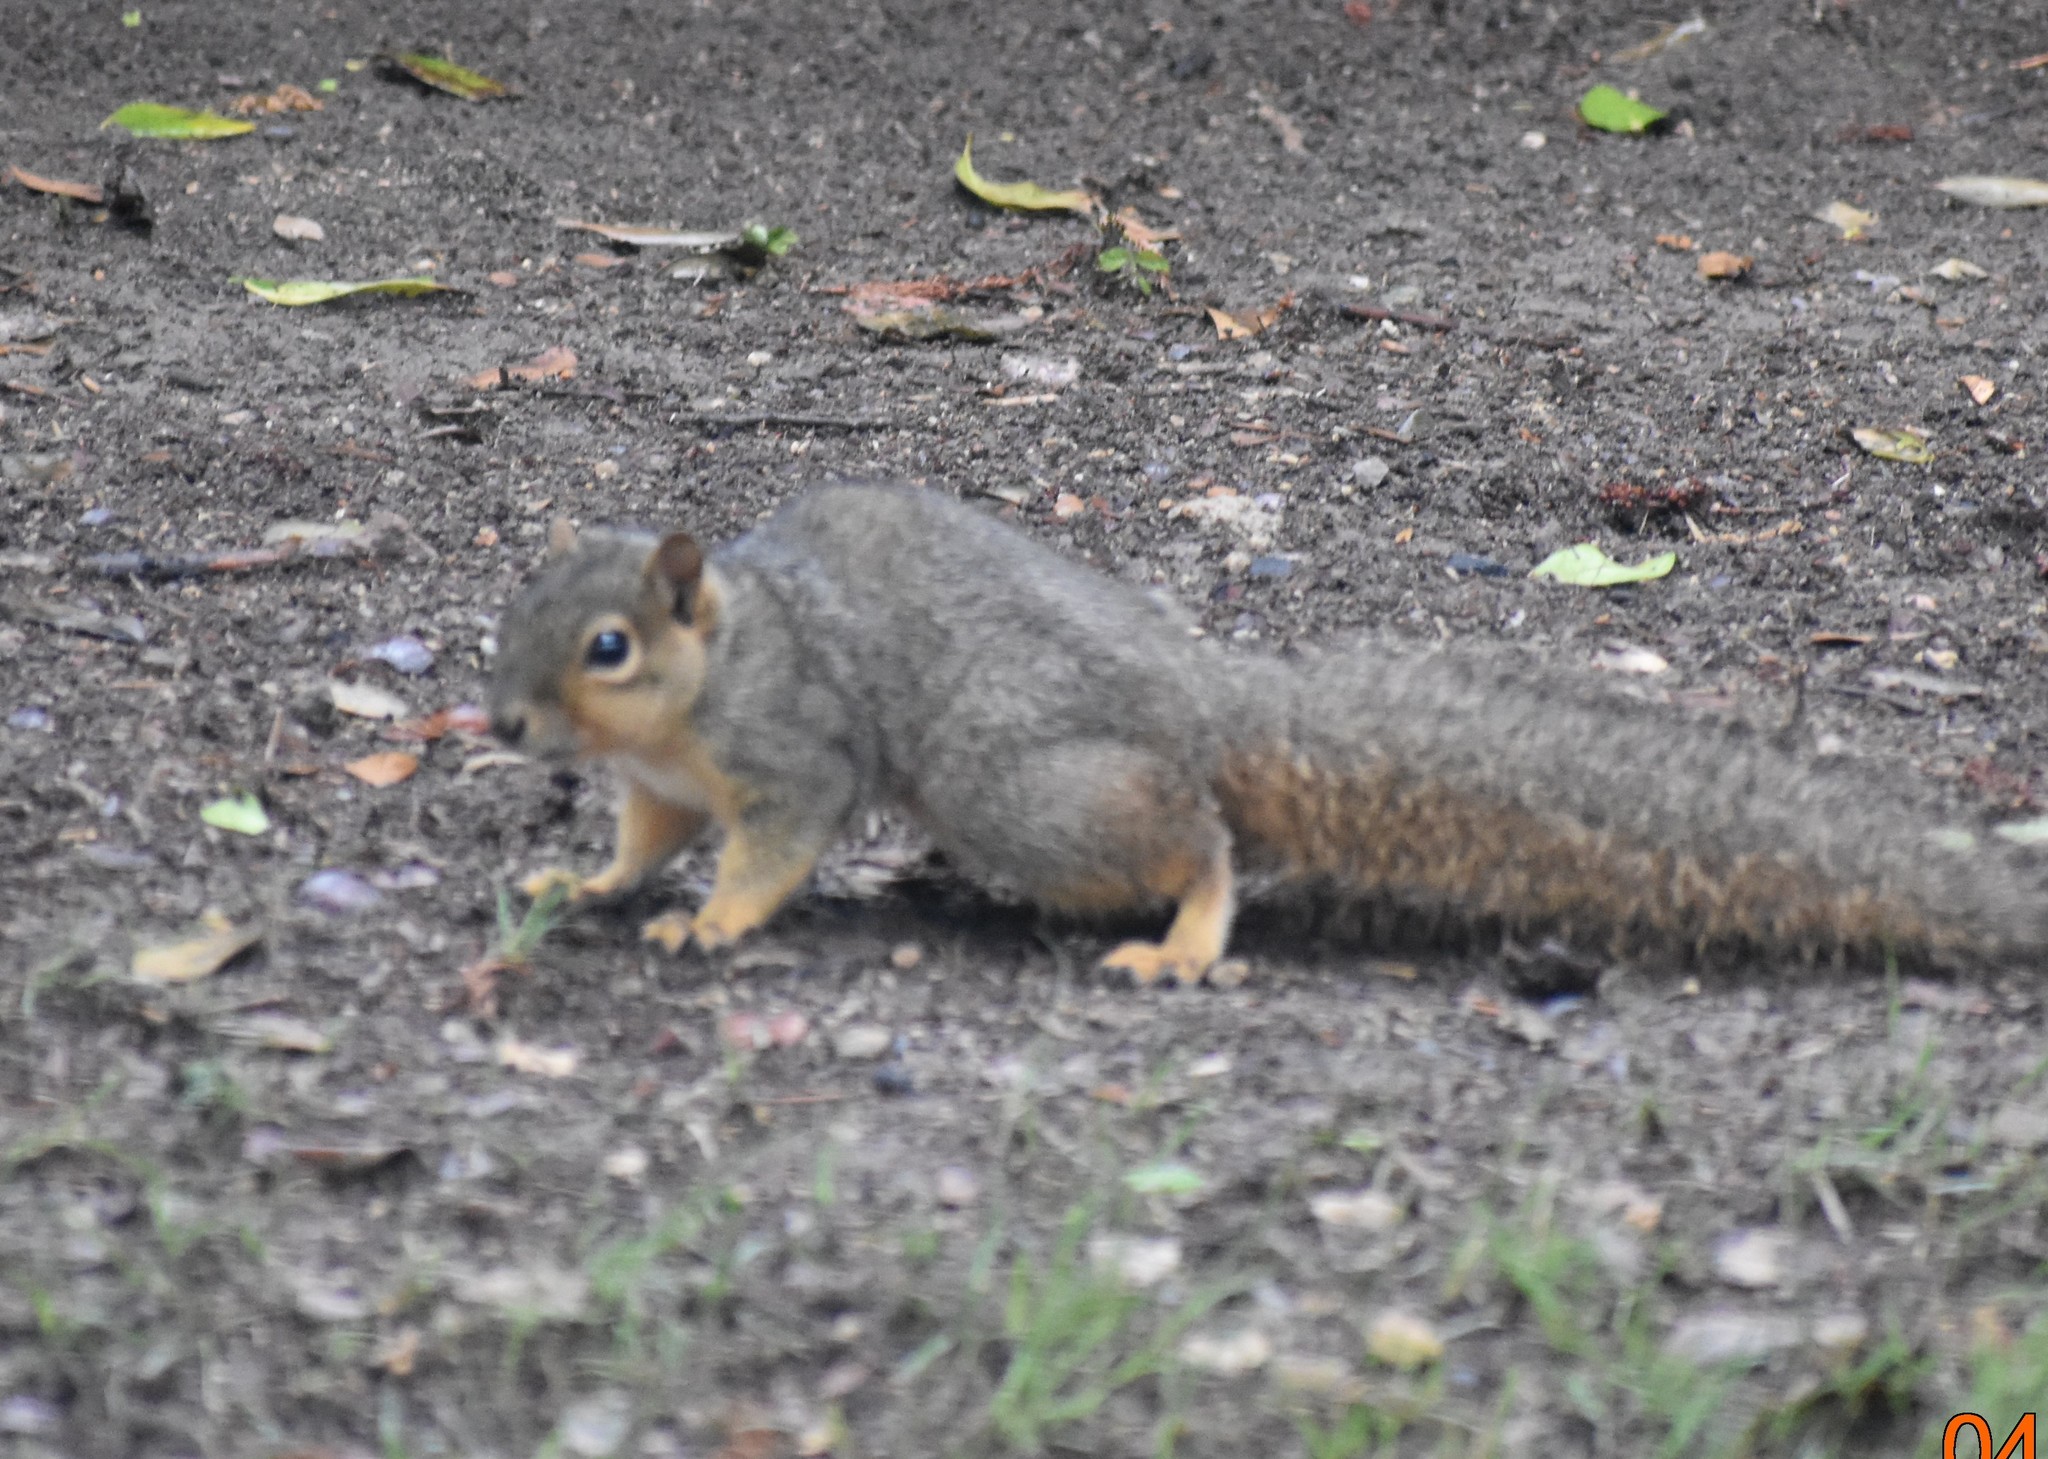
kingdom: Animalia
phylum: Chordata
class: Mammalia
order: Rodentia
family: Sciuridae
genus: Sciurus
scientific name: Sciurus niger
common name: Fox squirrel
